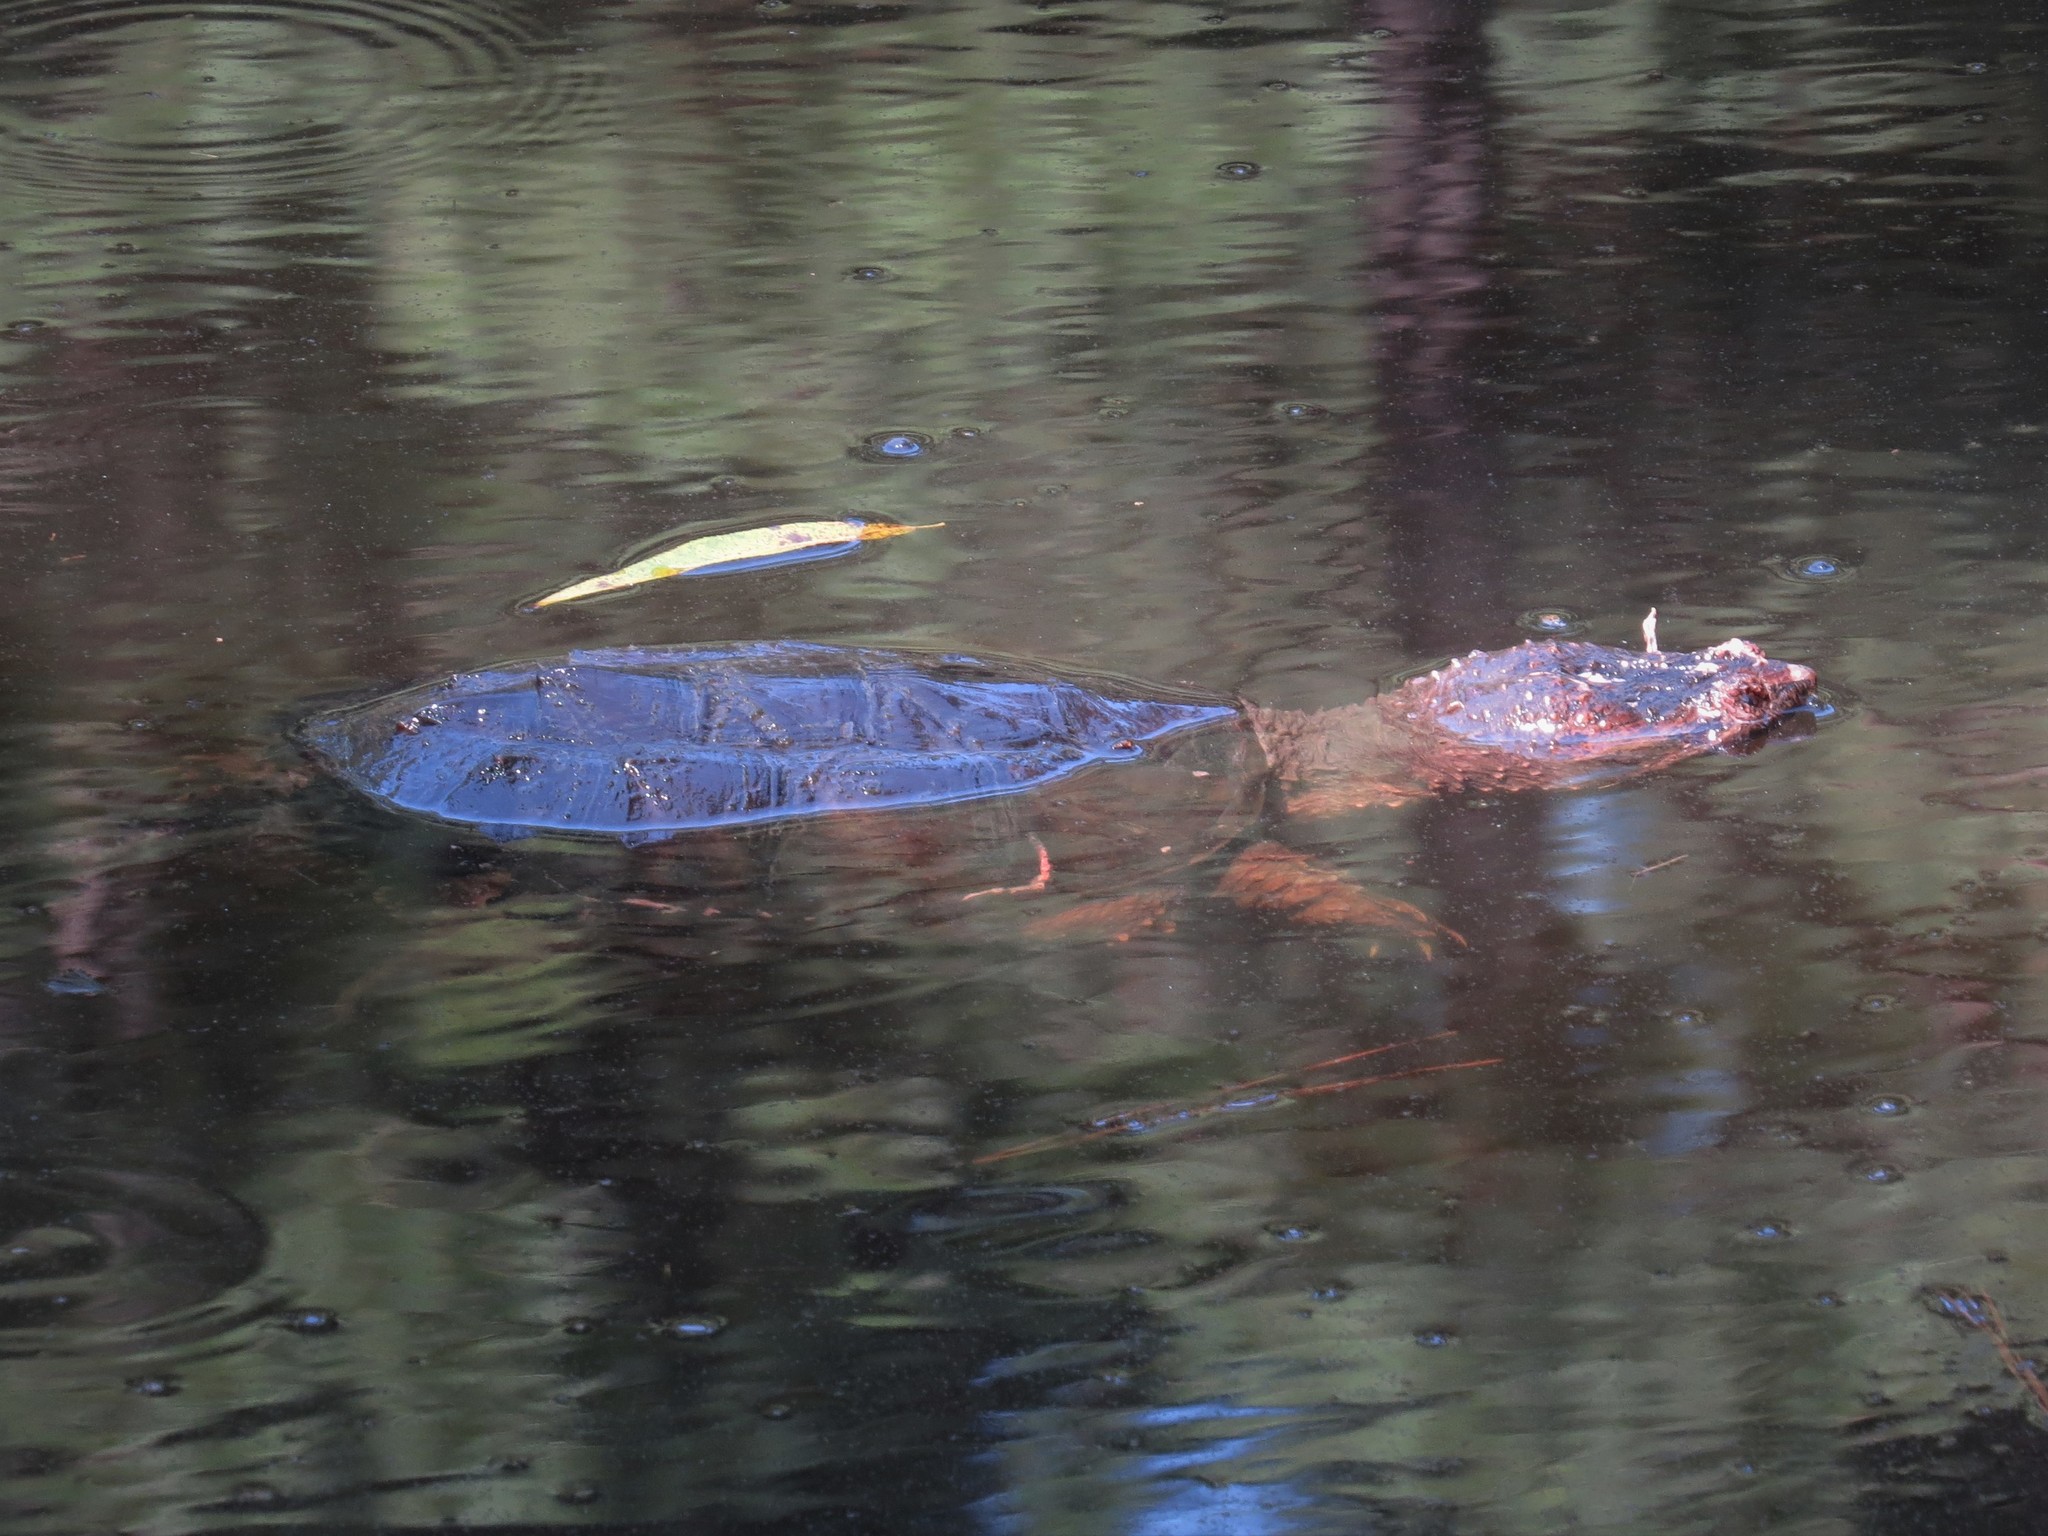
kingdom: Animalia
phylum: Chordata
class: Testudines
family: Chelydridae
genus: Chelydra
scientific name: Chelydra serpentina
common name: Common snapping turtle
